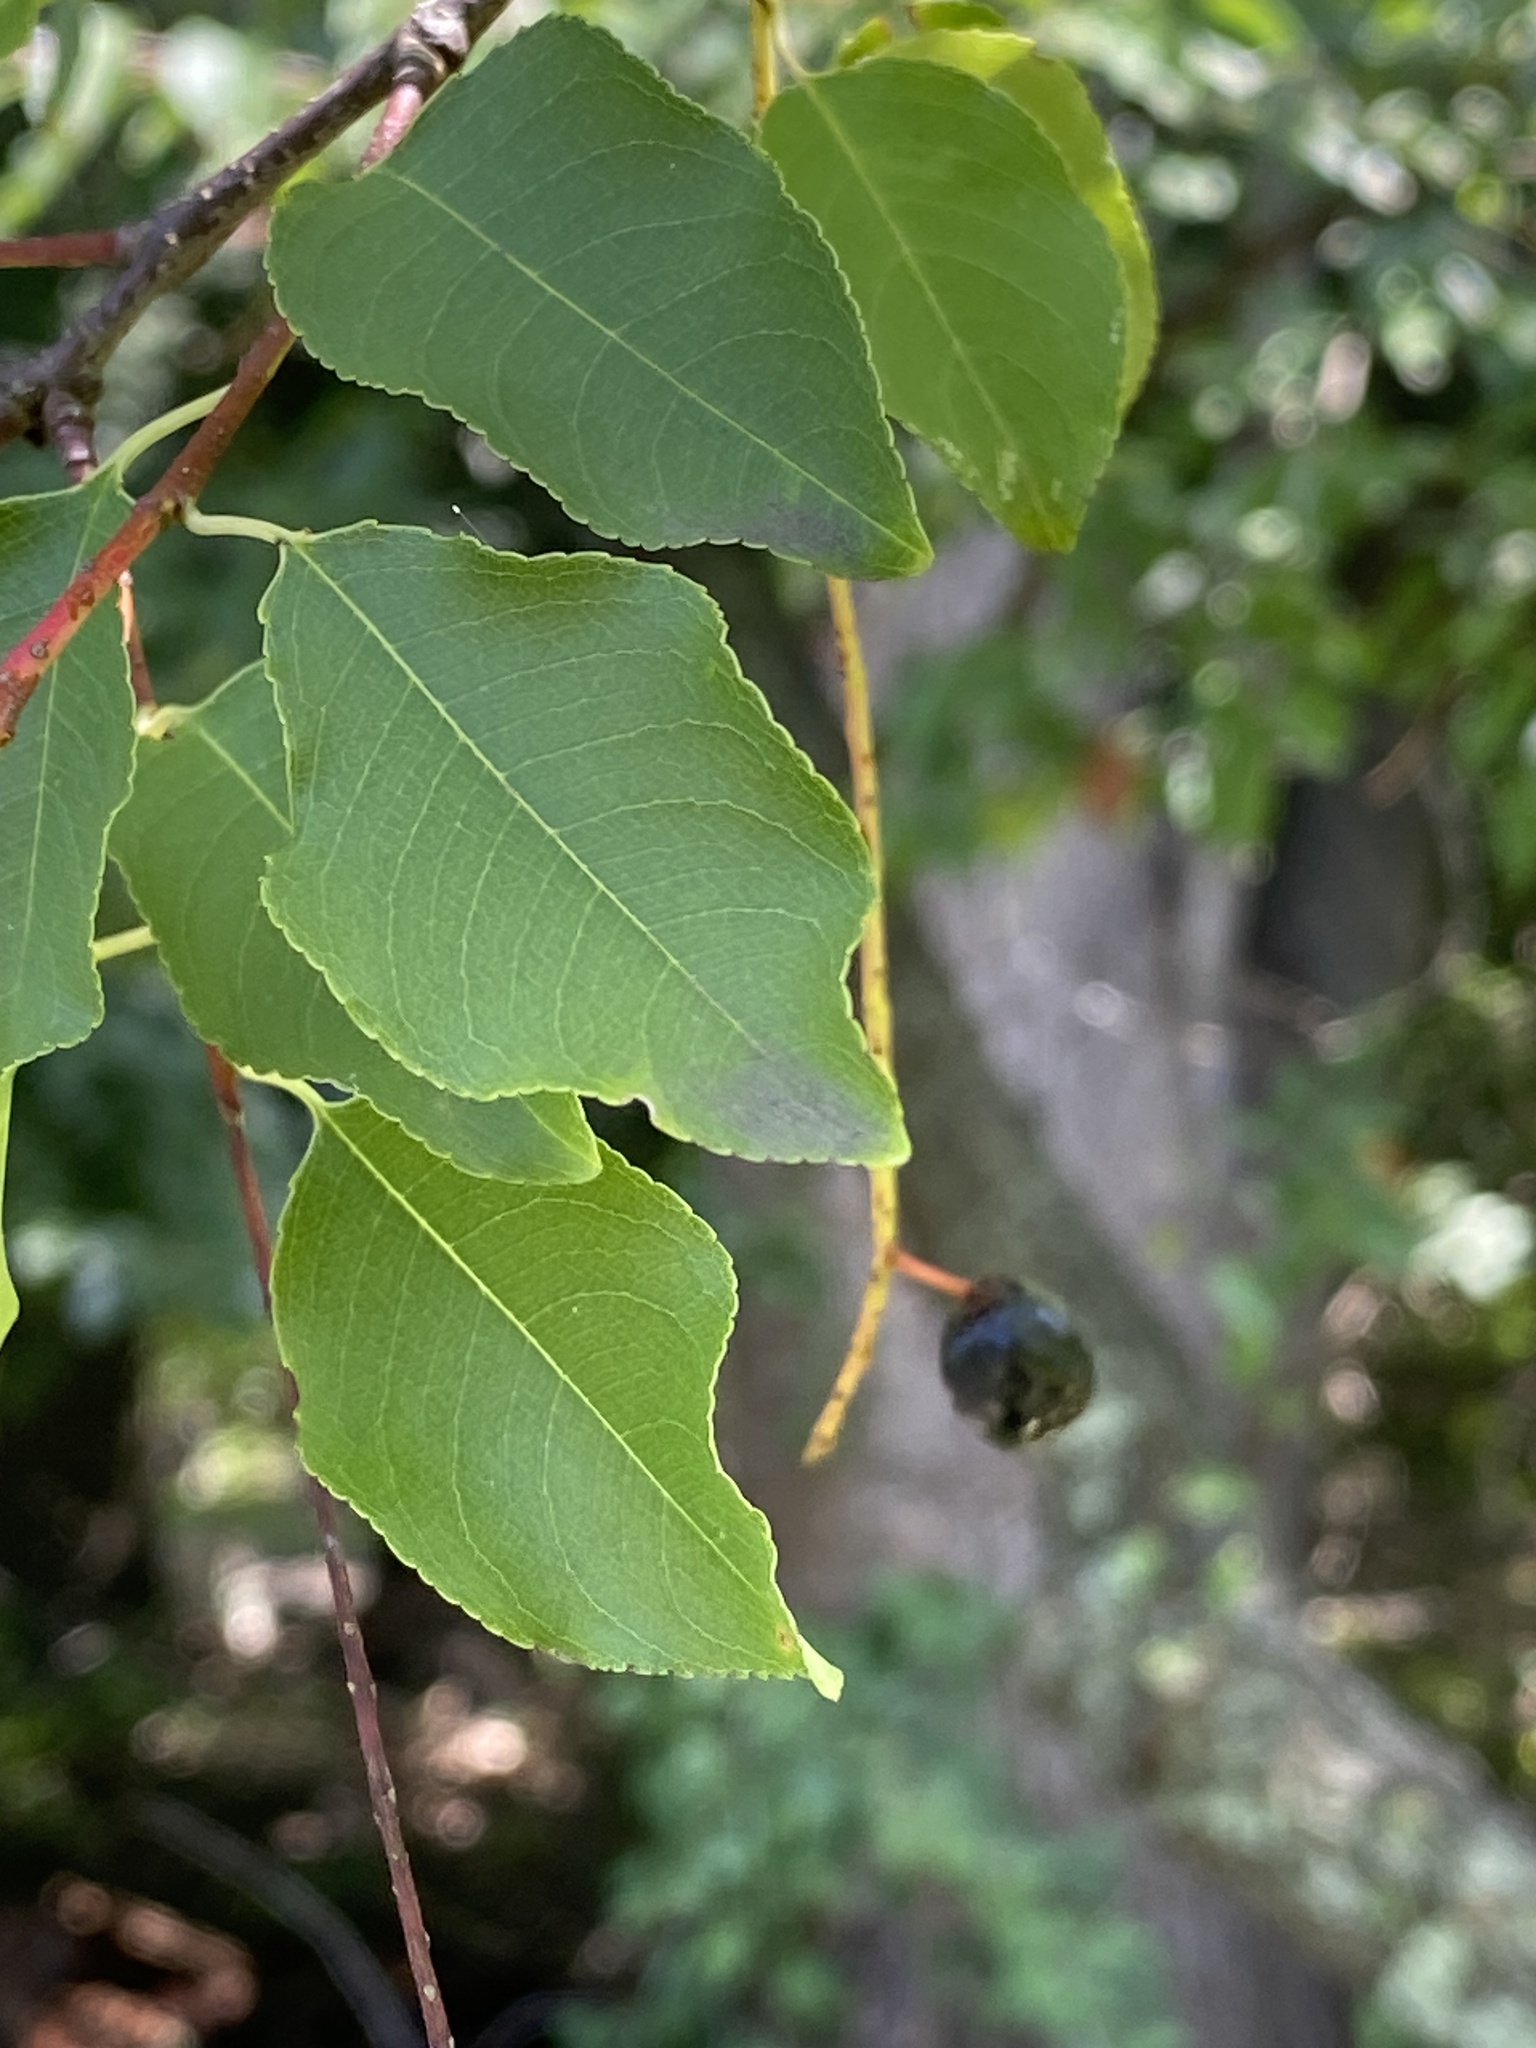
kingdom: Plantae
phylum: Tracheophyta
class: Magnoliopsida
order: Rosales
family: Rosaceae
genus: Prunus
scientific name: Prunus serotina
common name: Black cherry
